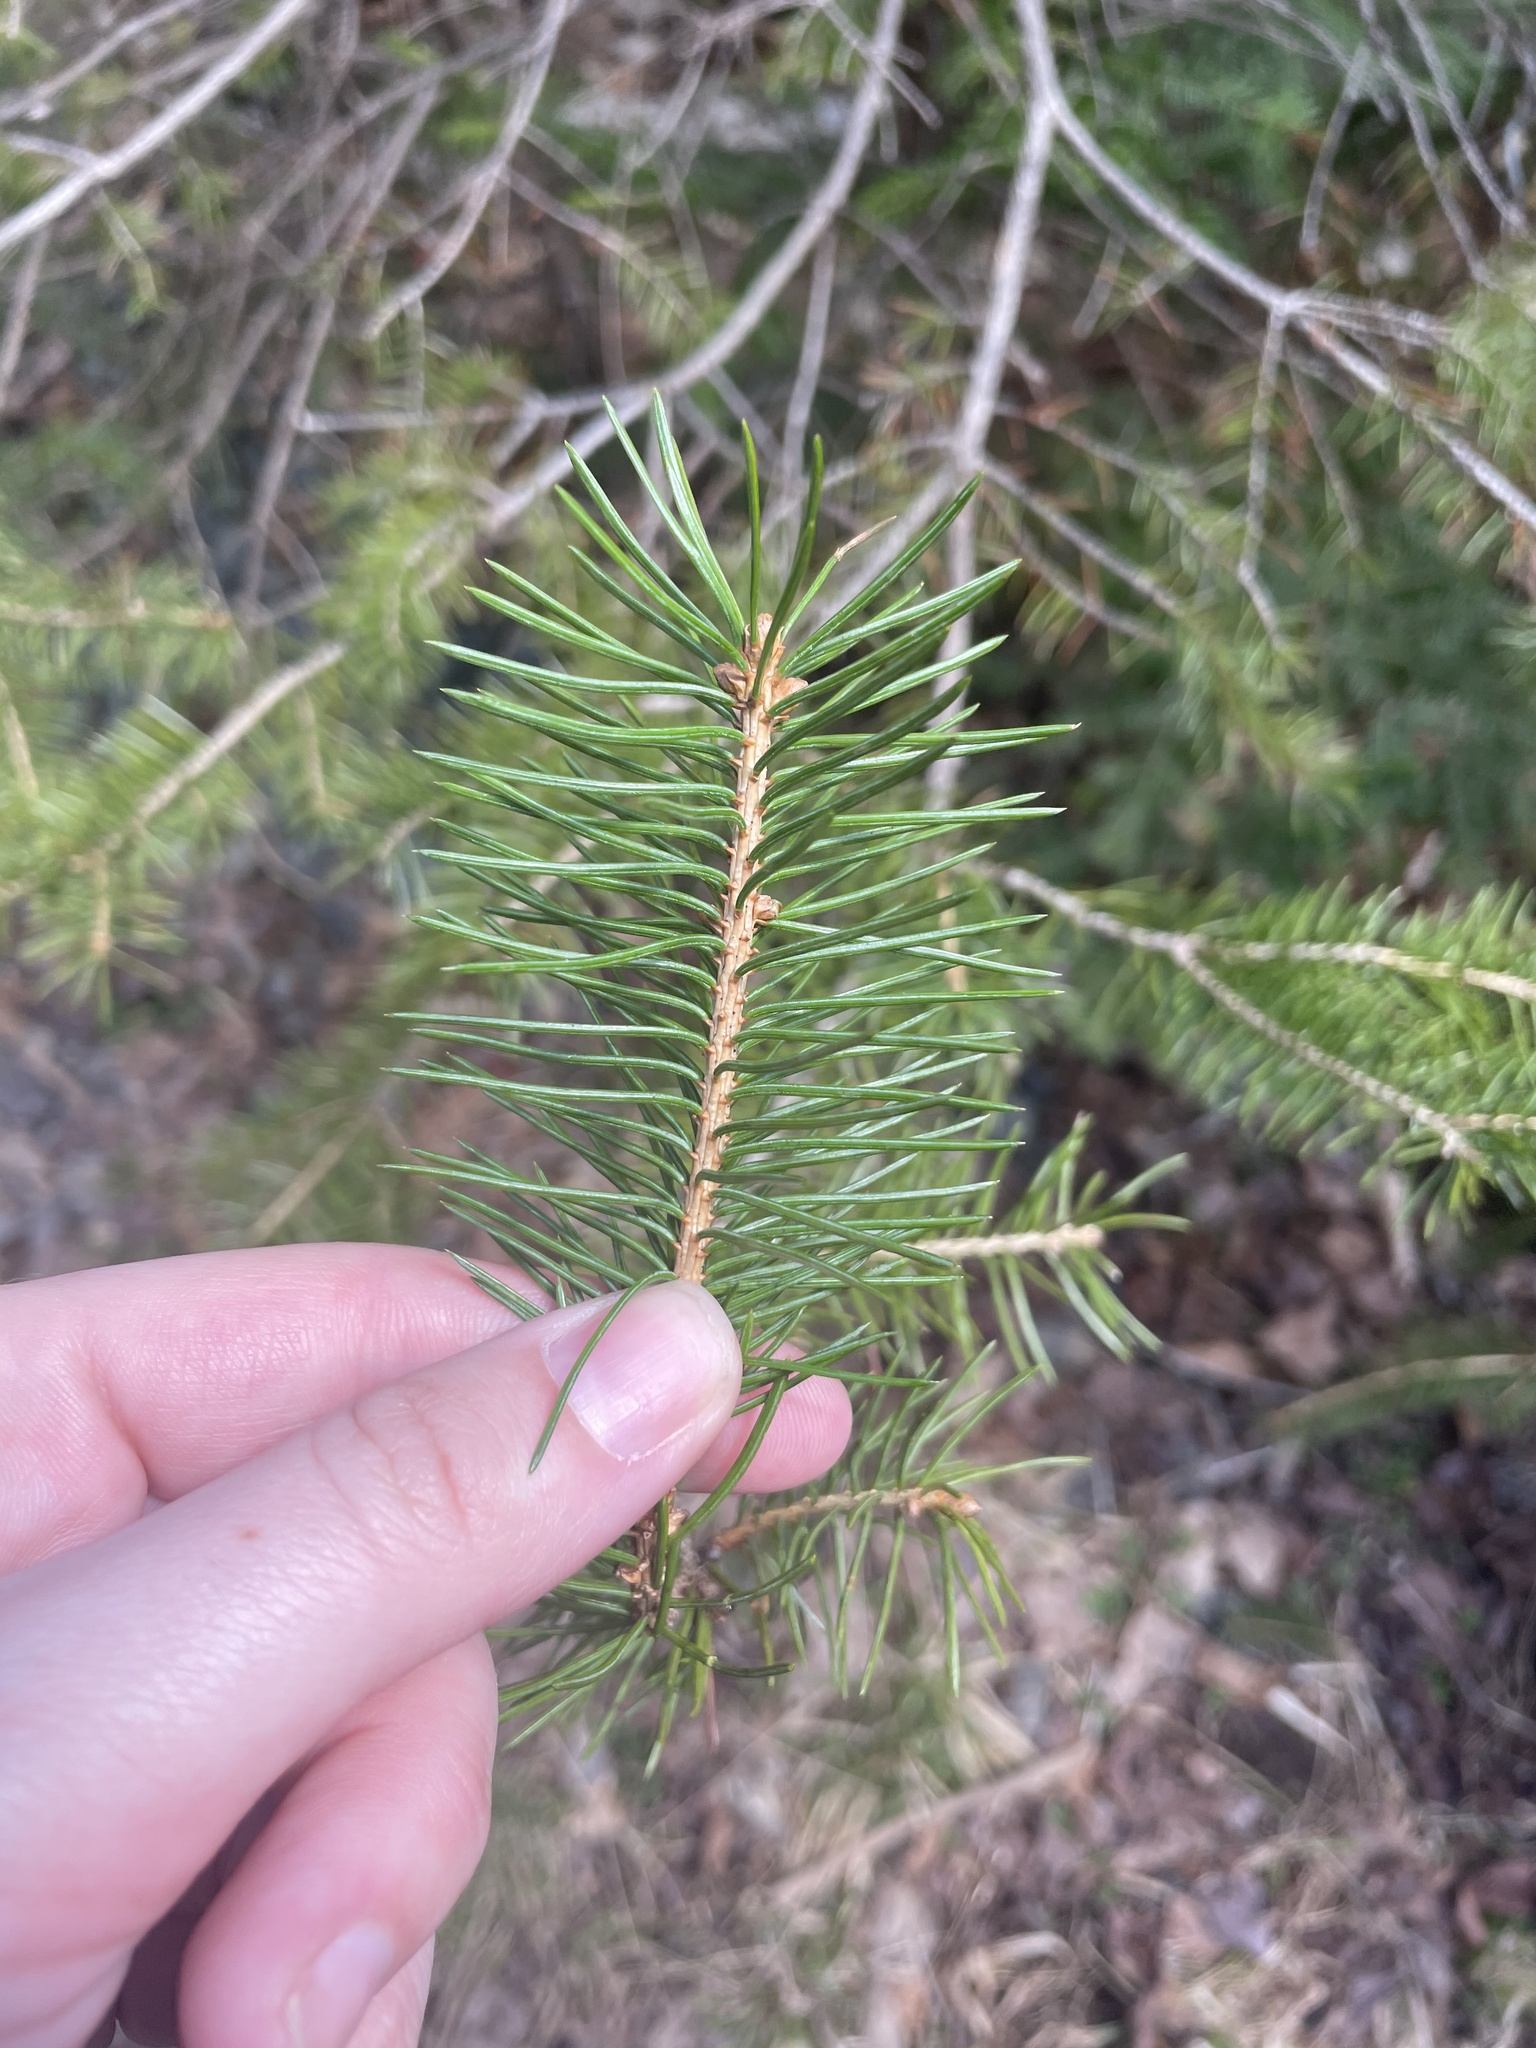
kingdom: Plantae
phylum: Tracheophyta
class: Pinopsida
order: Pinales
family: Pinaceae
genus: Picea
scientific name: Picea glauca
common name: White spruce
